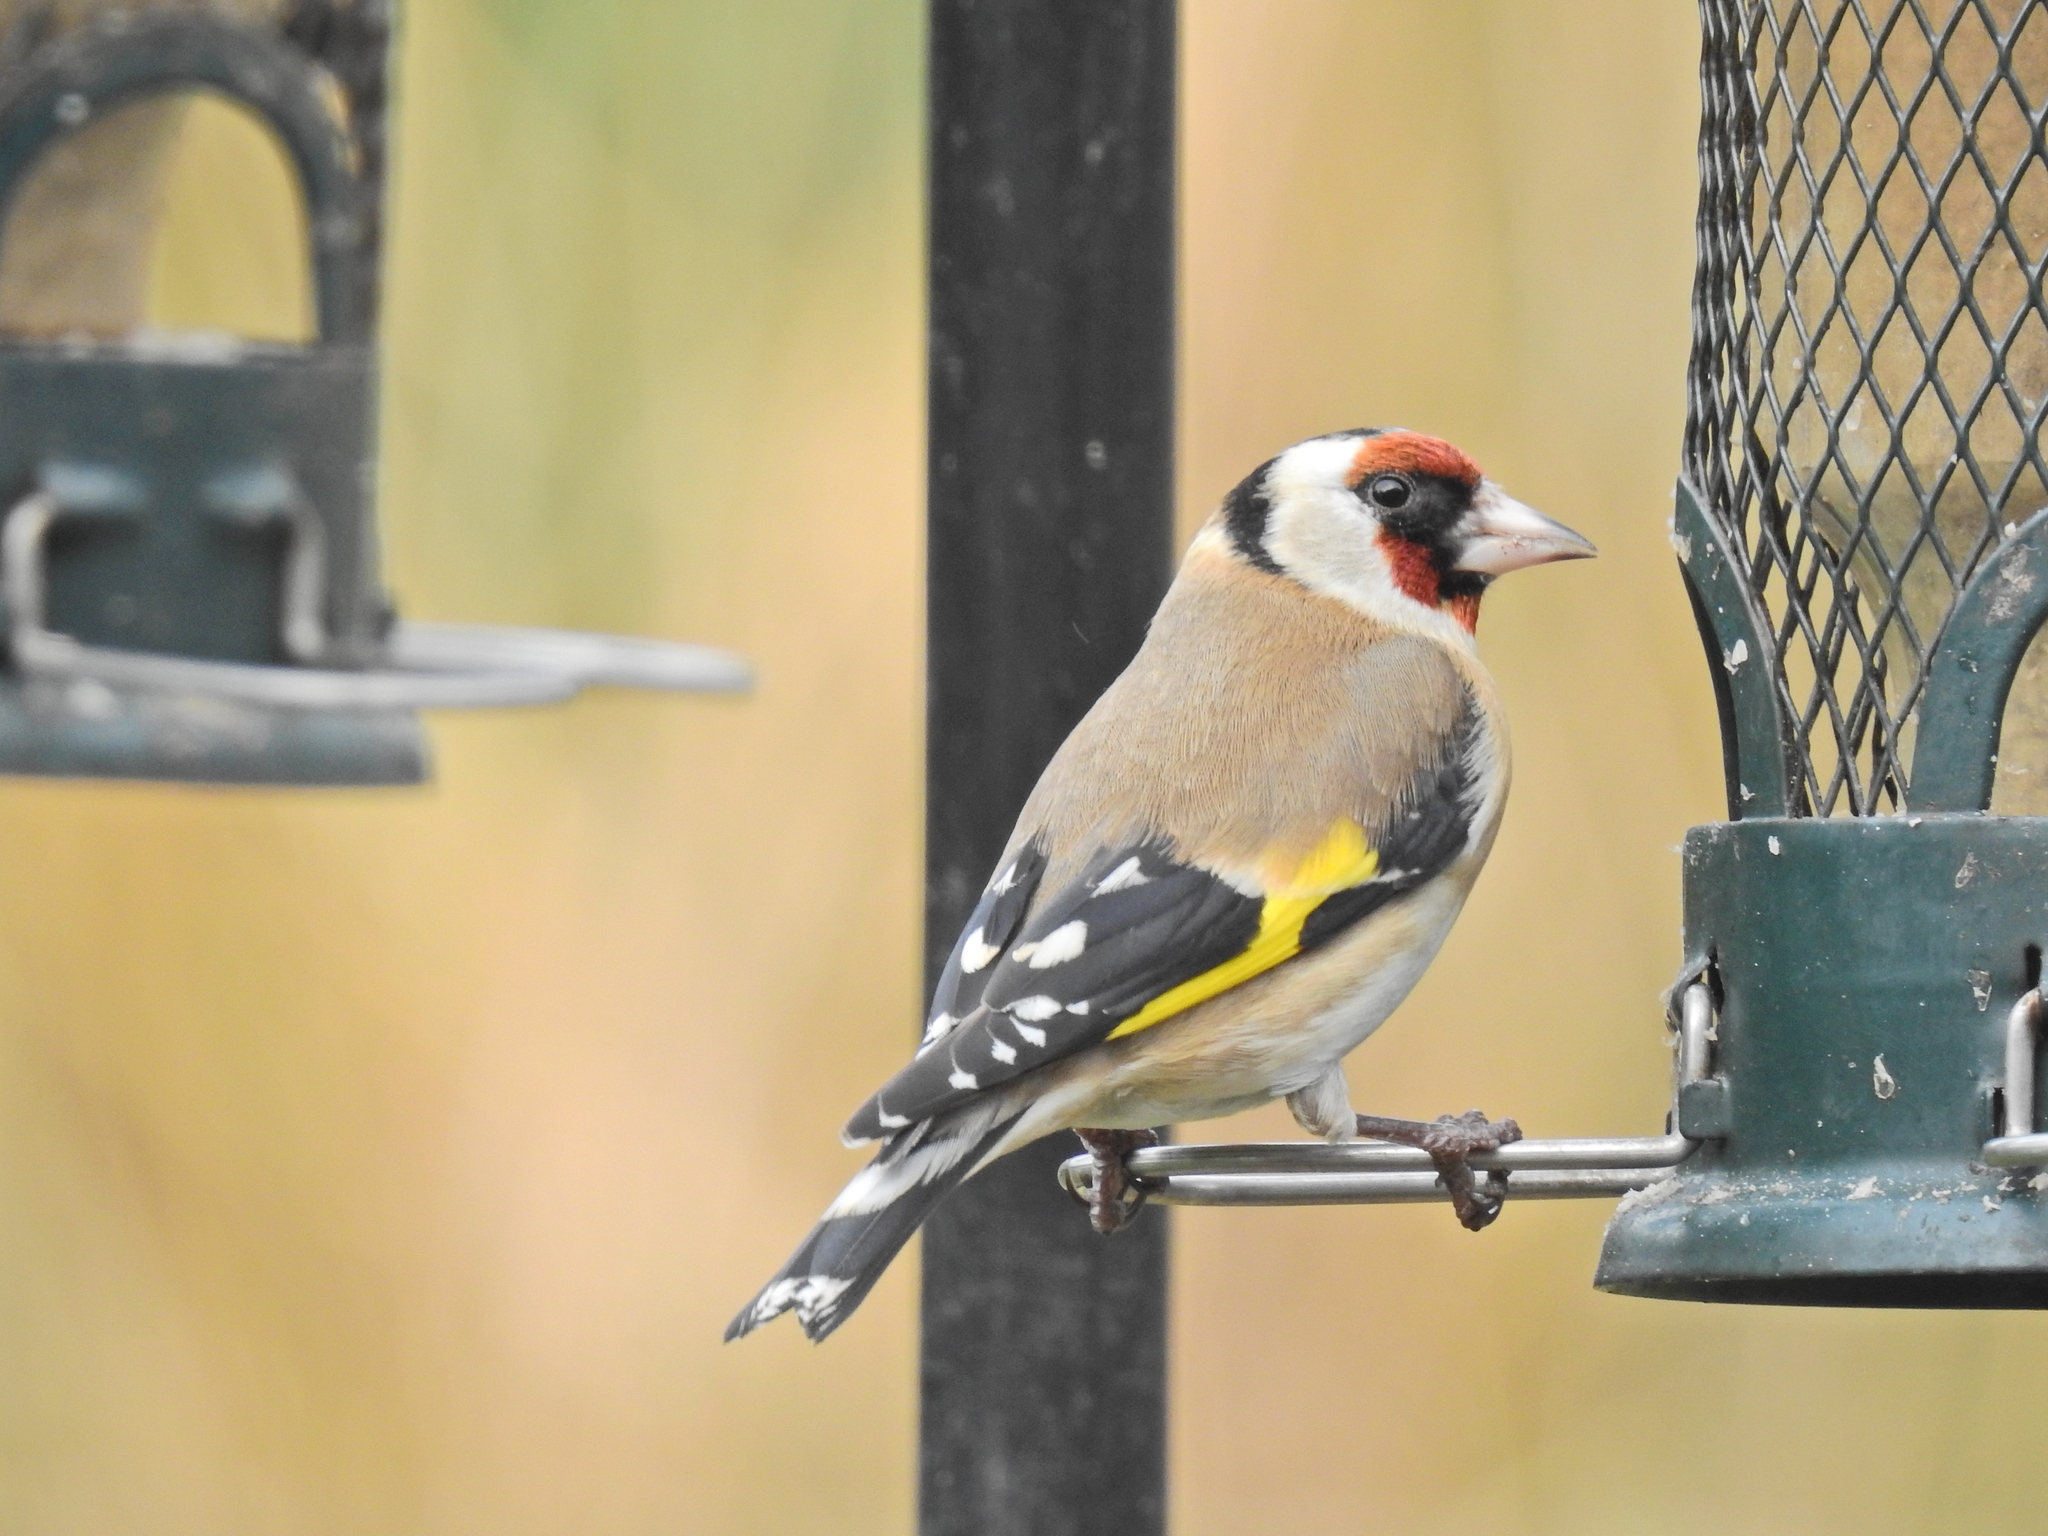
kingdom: Animalia
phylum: Chordata
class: Aves
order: Passeriformes
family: Fringillidae
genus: Carduelis
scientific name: Carduelis carduelis
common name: European goldfinch
